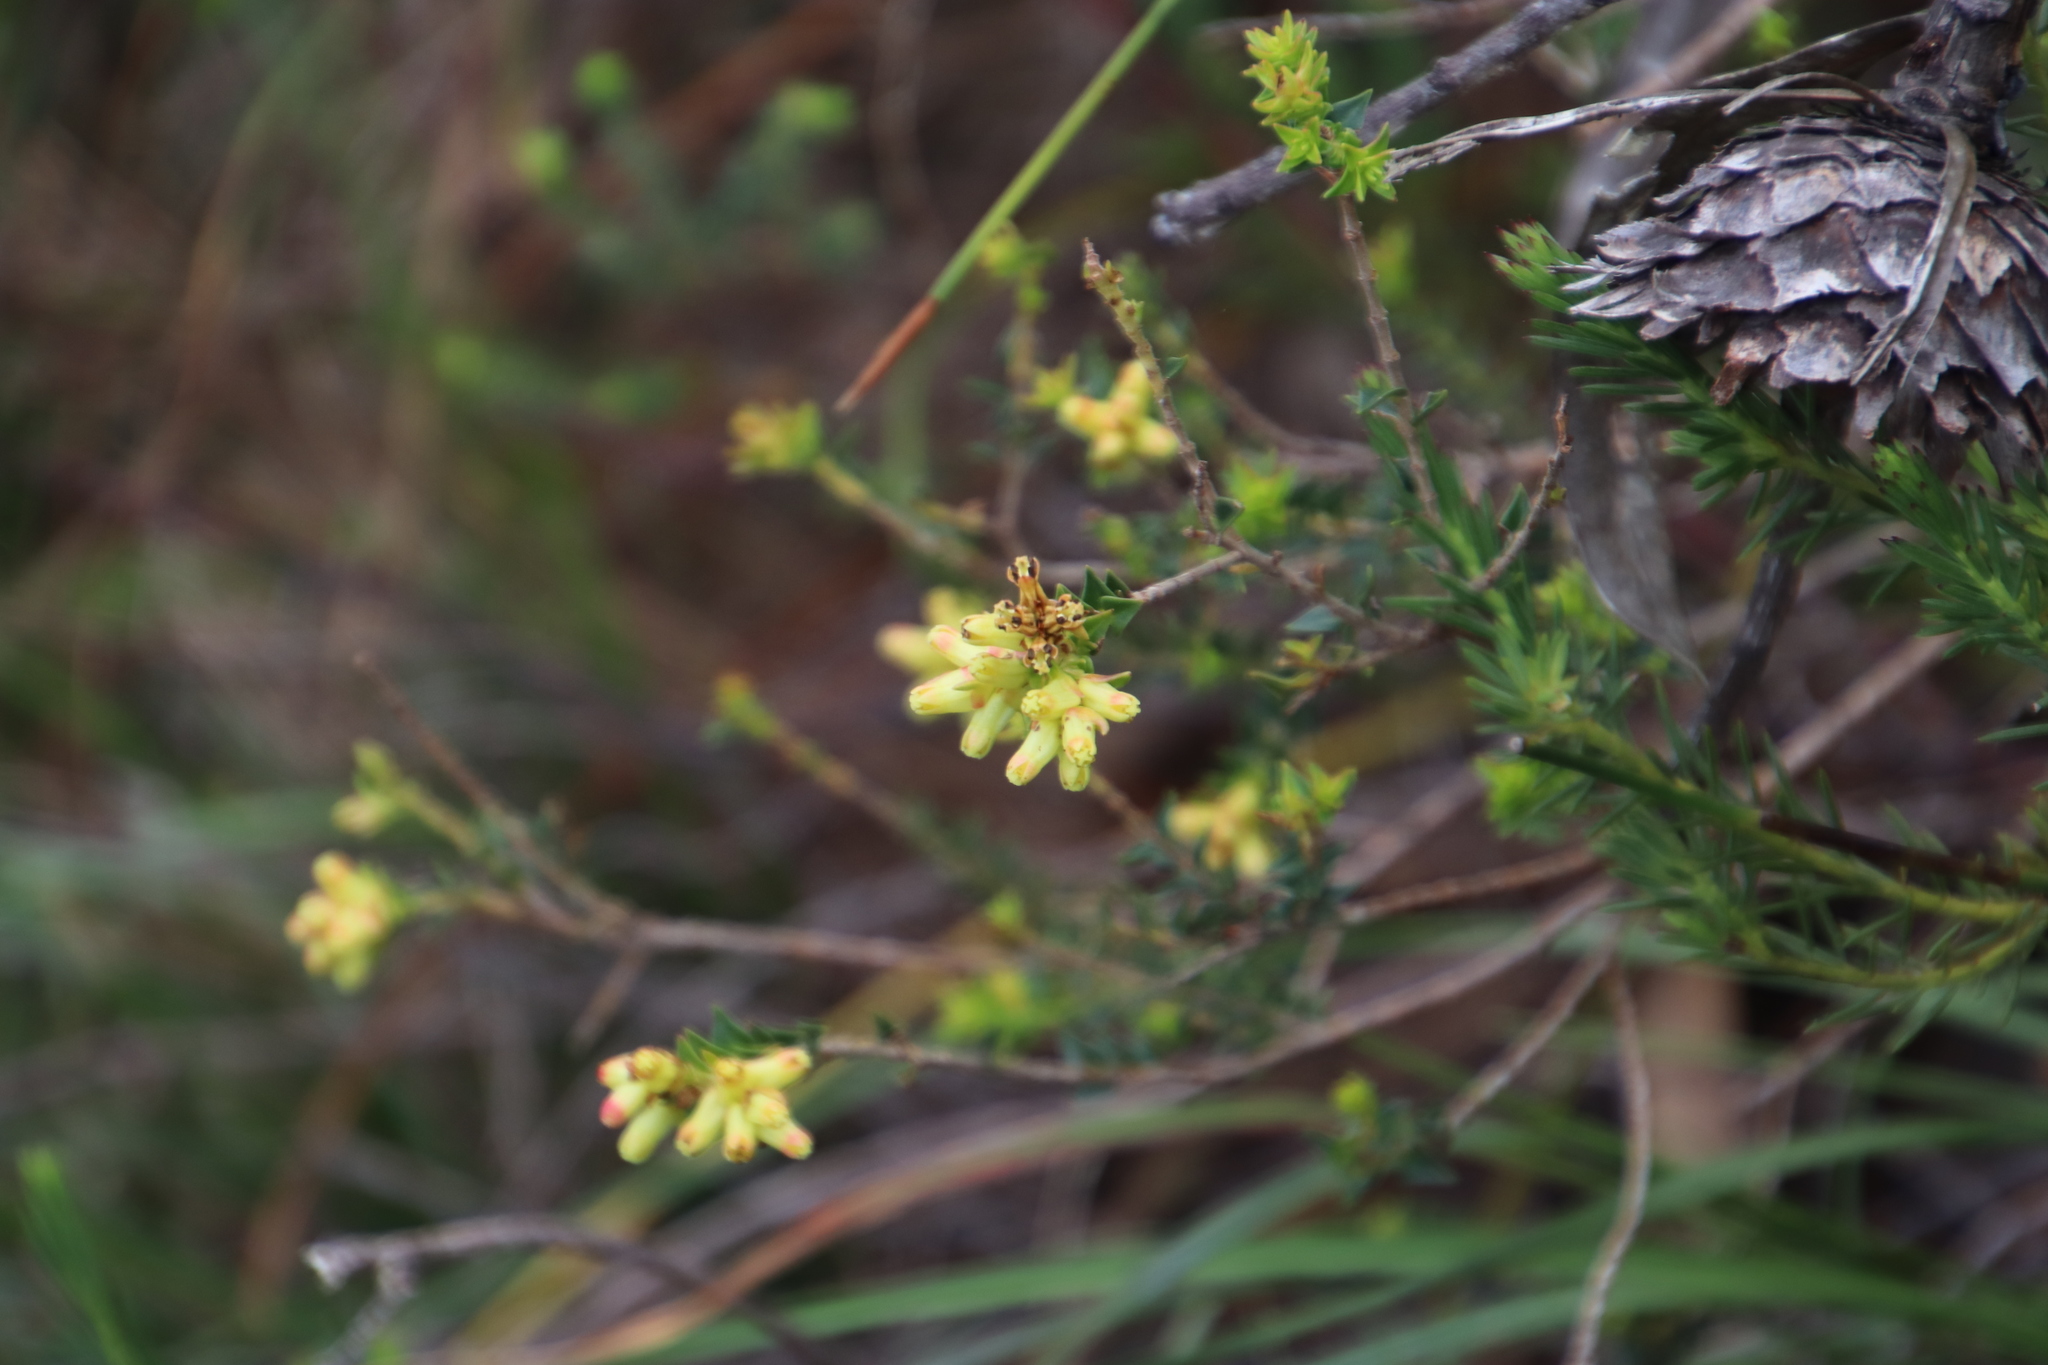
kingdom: Plantae
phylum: Tracheophyta
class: Magnoliopsida
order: Myrtales
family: Penaeaceae
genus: Penaea
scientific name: Penaea mucronata
